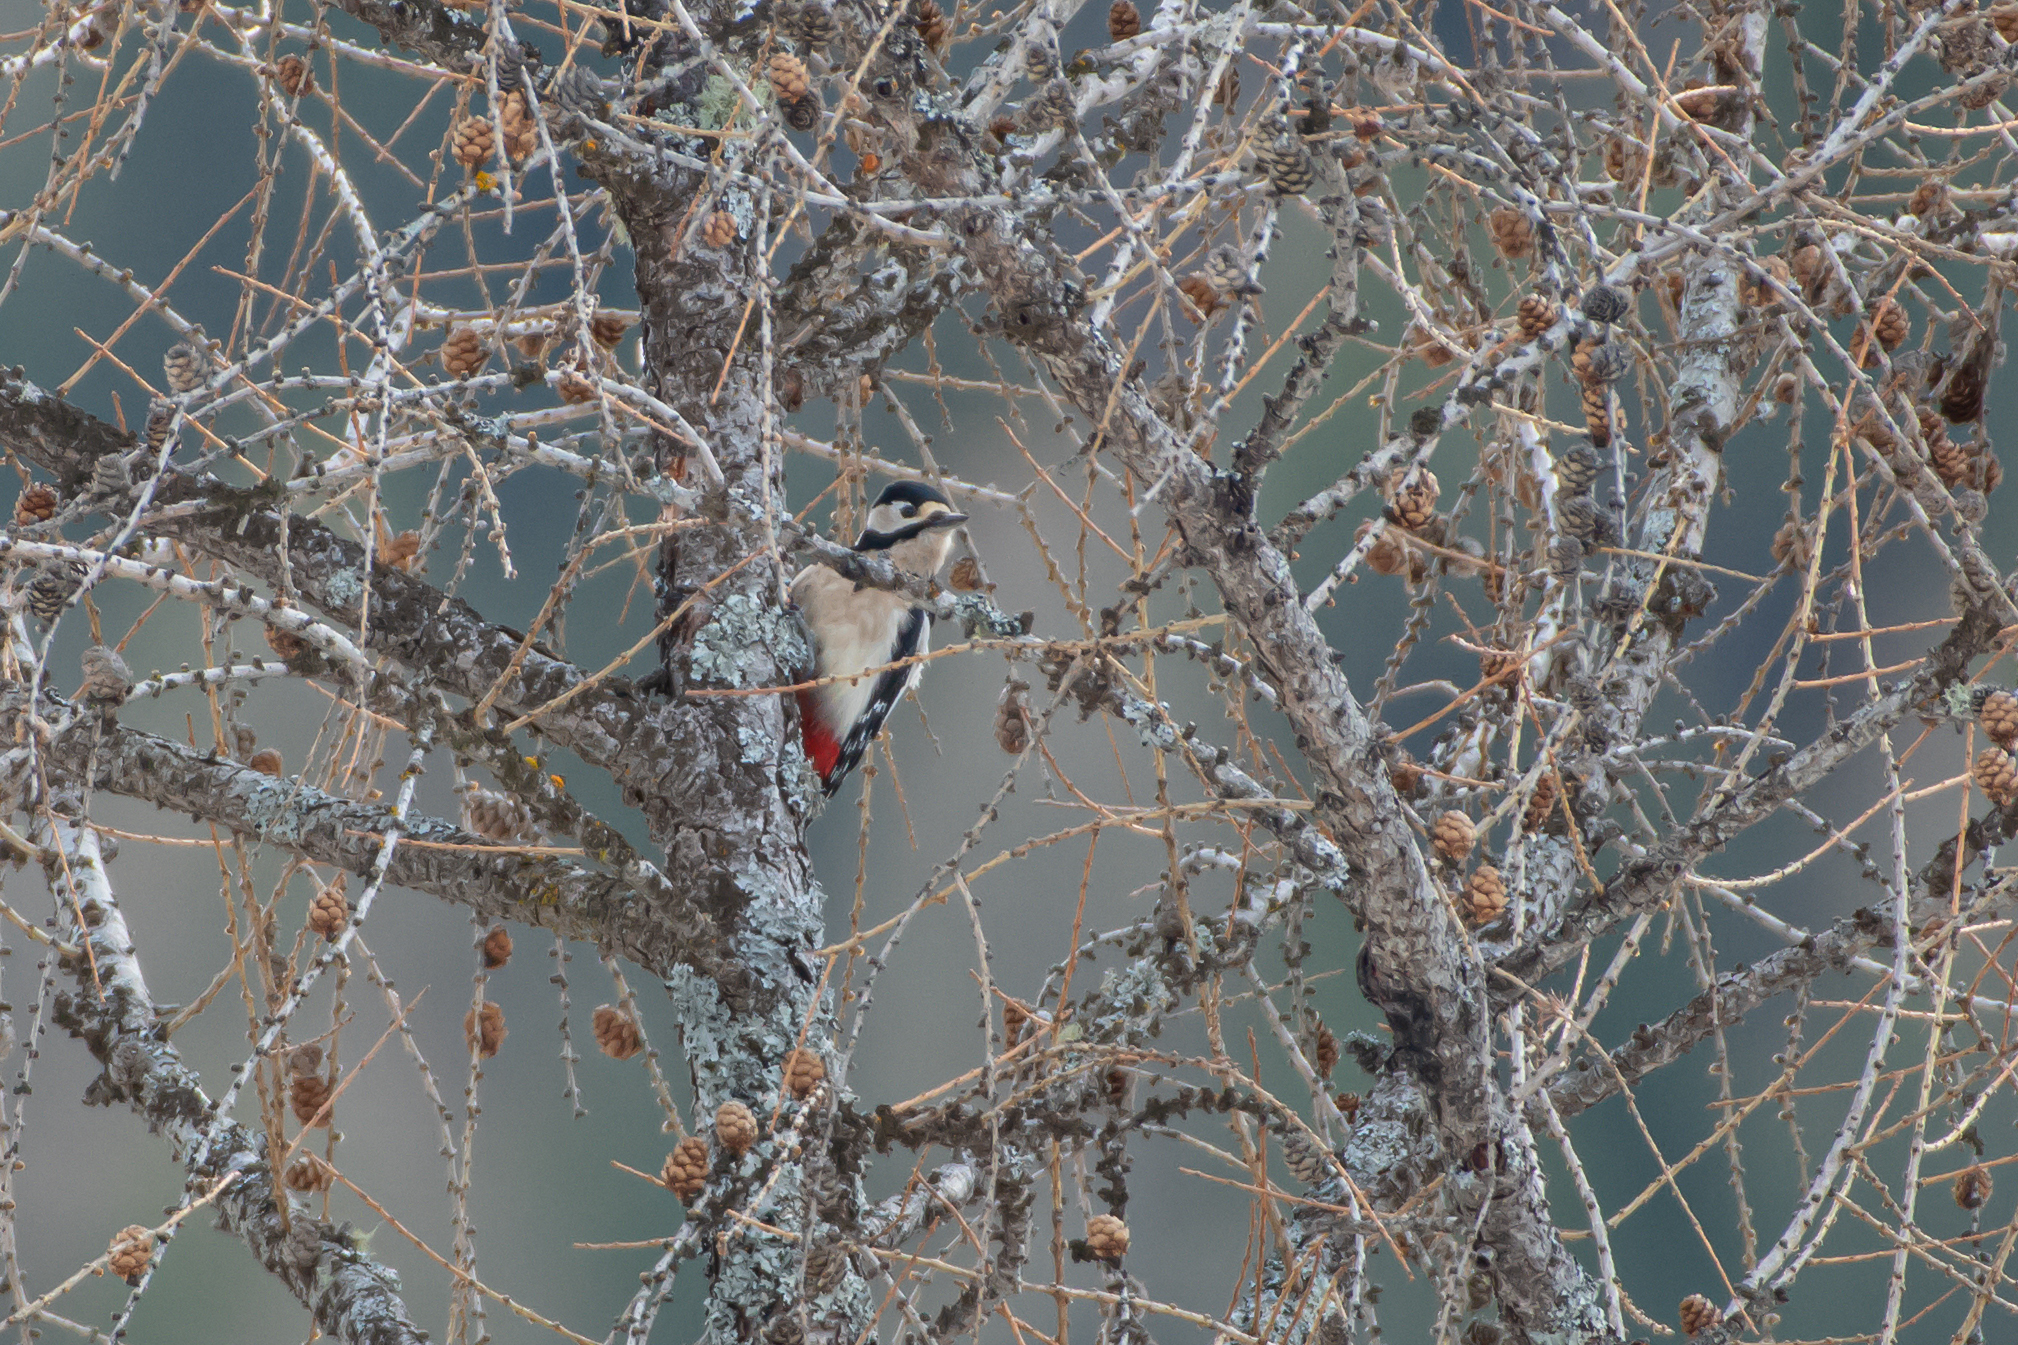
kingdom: Animalia
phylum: Chordata
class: Aves
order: Piciformes
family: Picidae
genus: Dendrocopos
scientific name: Dendrocopos major
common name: Great spotted woodpecker
